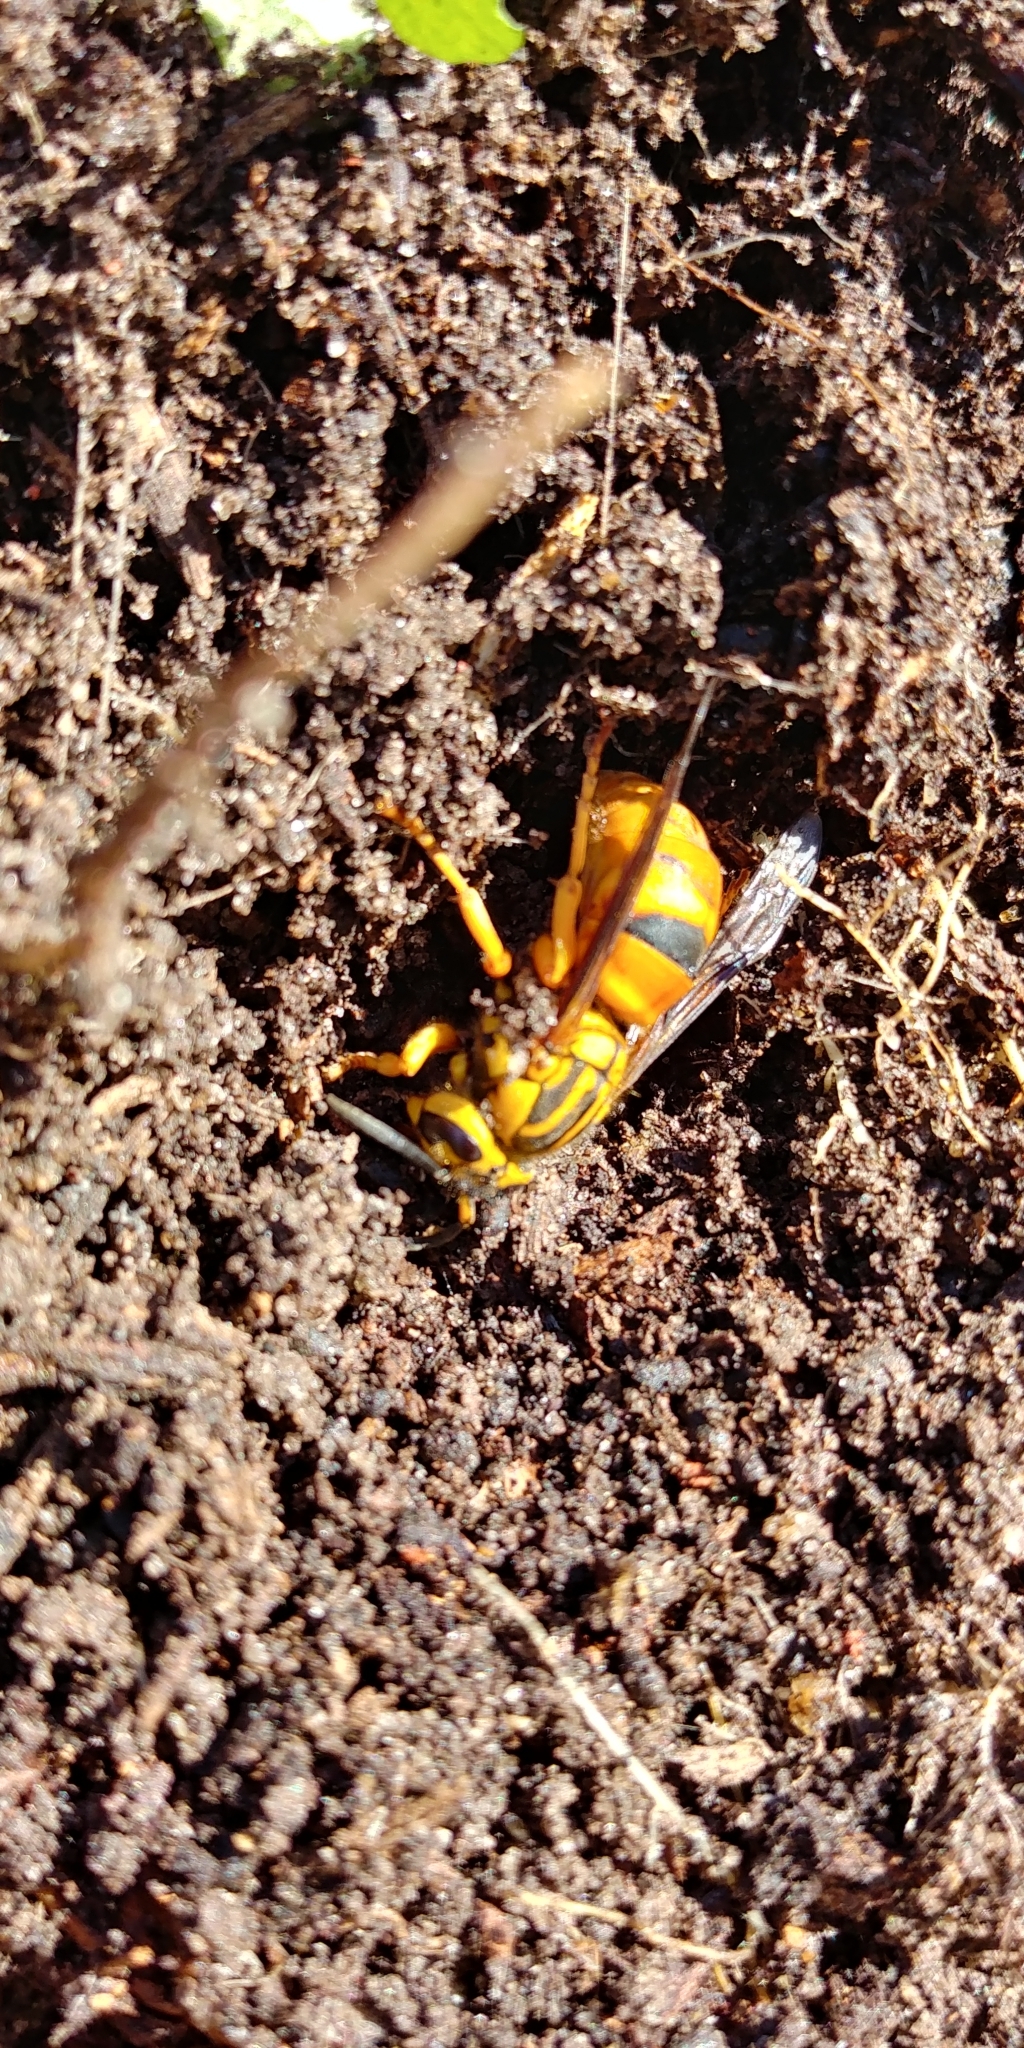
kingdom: Animalia
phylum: Arthropoda
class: Insecta
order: Hymenoptera
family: Vespidae
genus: Vespula
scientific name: Vespula squamosa
